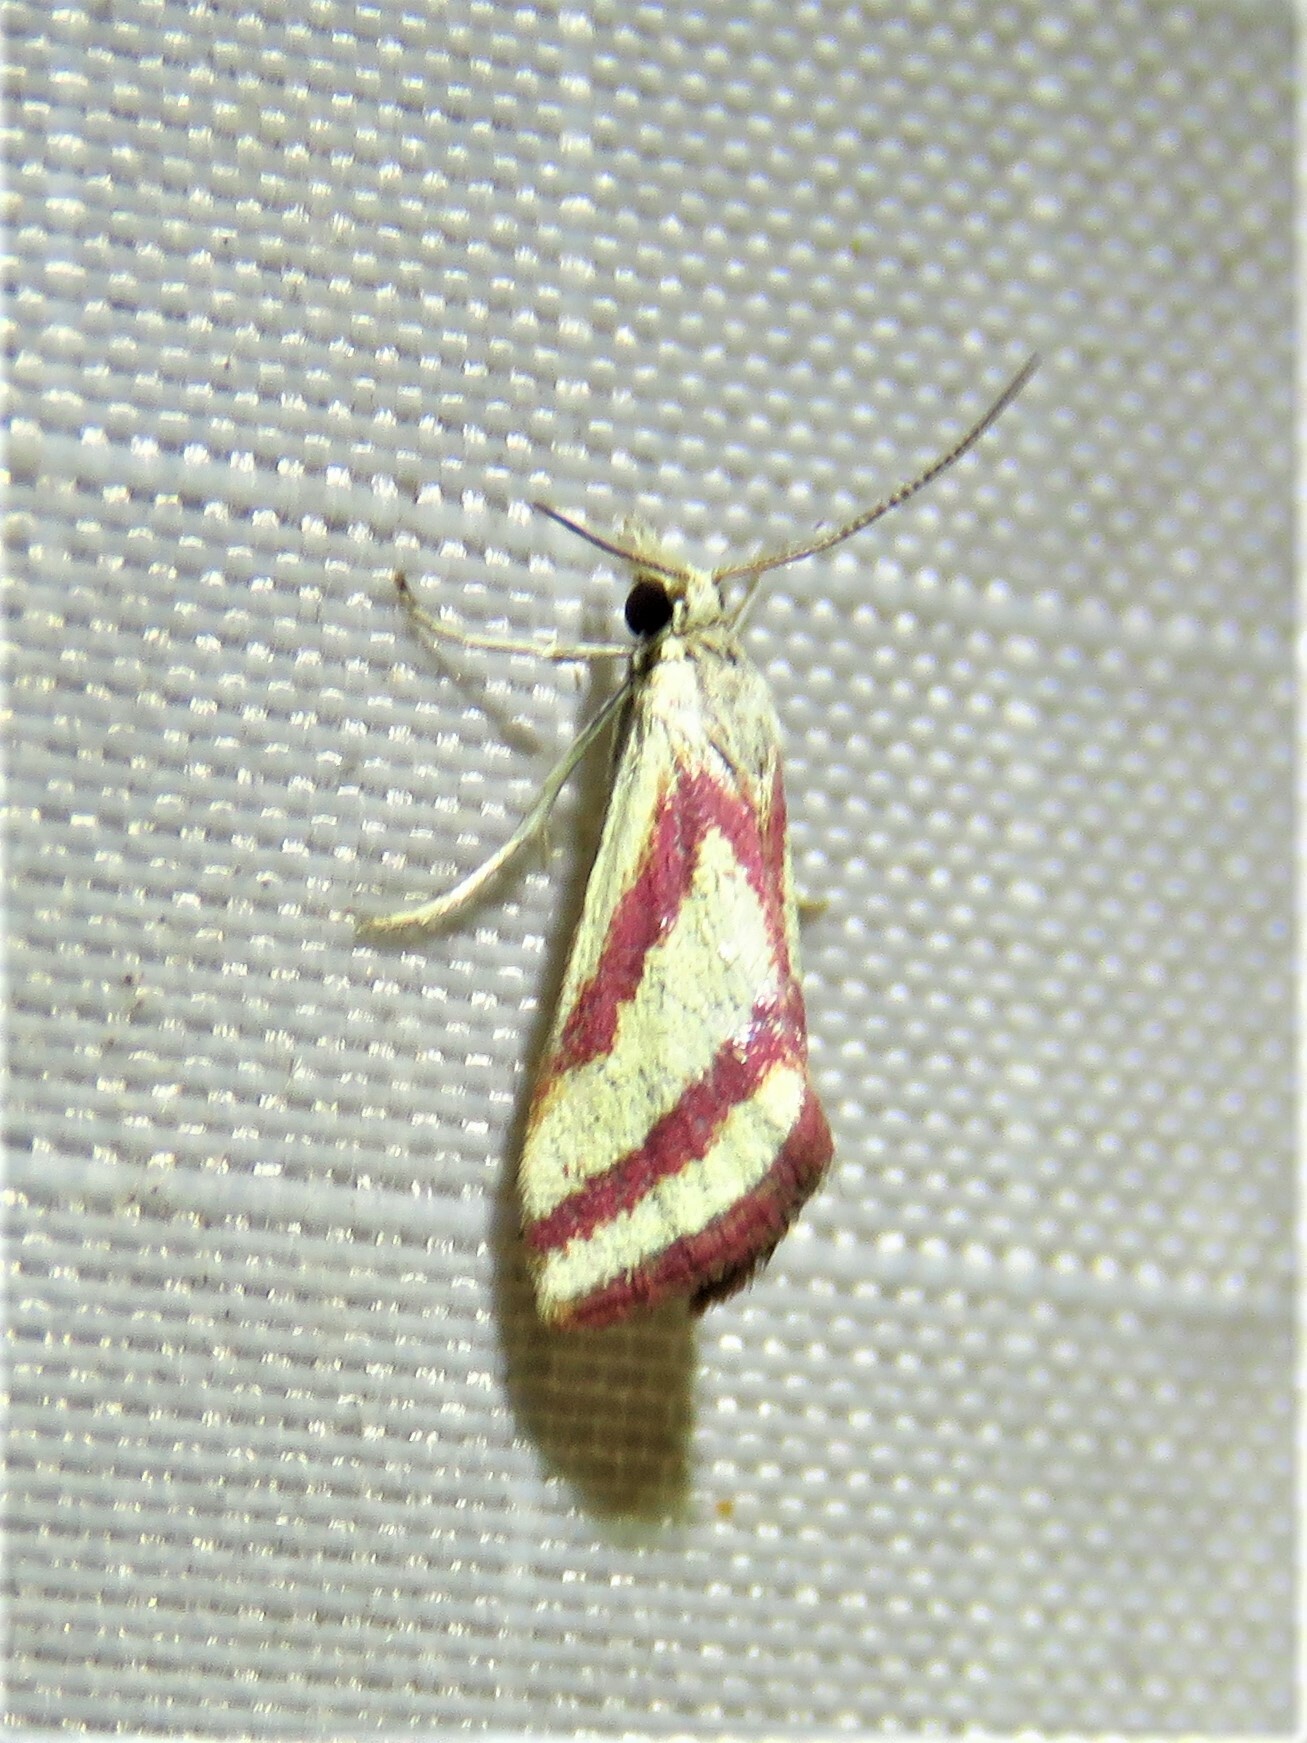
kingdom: Animalia
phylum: Arthropoda
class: Insecta
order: Lepidoptera
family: Crambidae
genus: Microtheoris
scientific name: Microtheoris vibicalis
